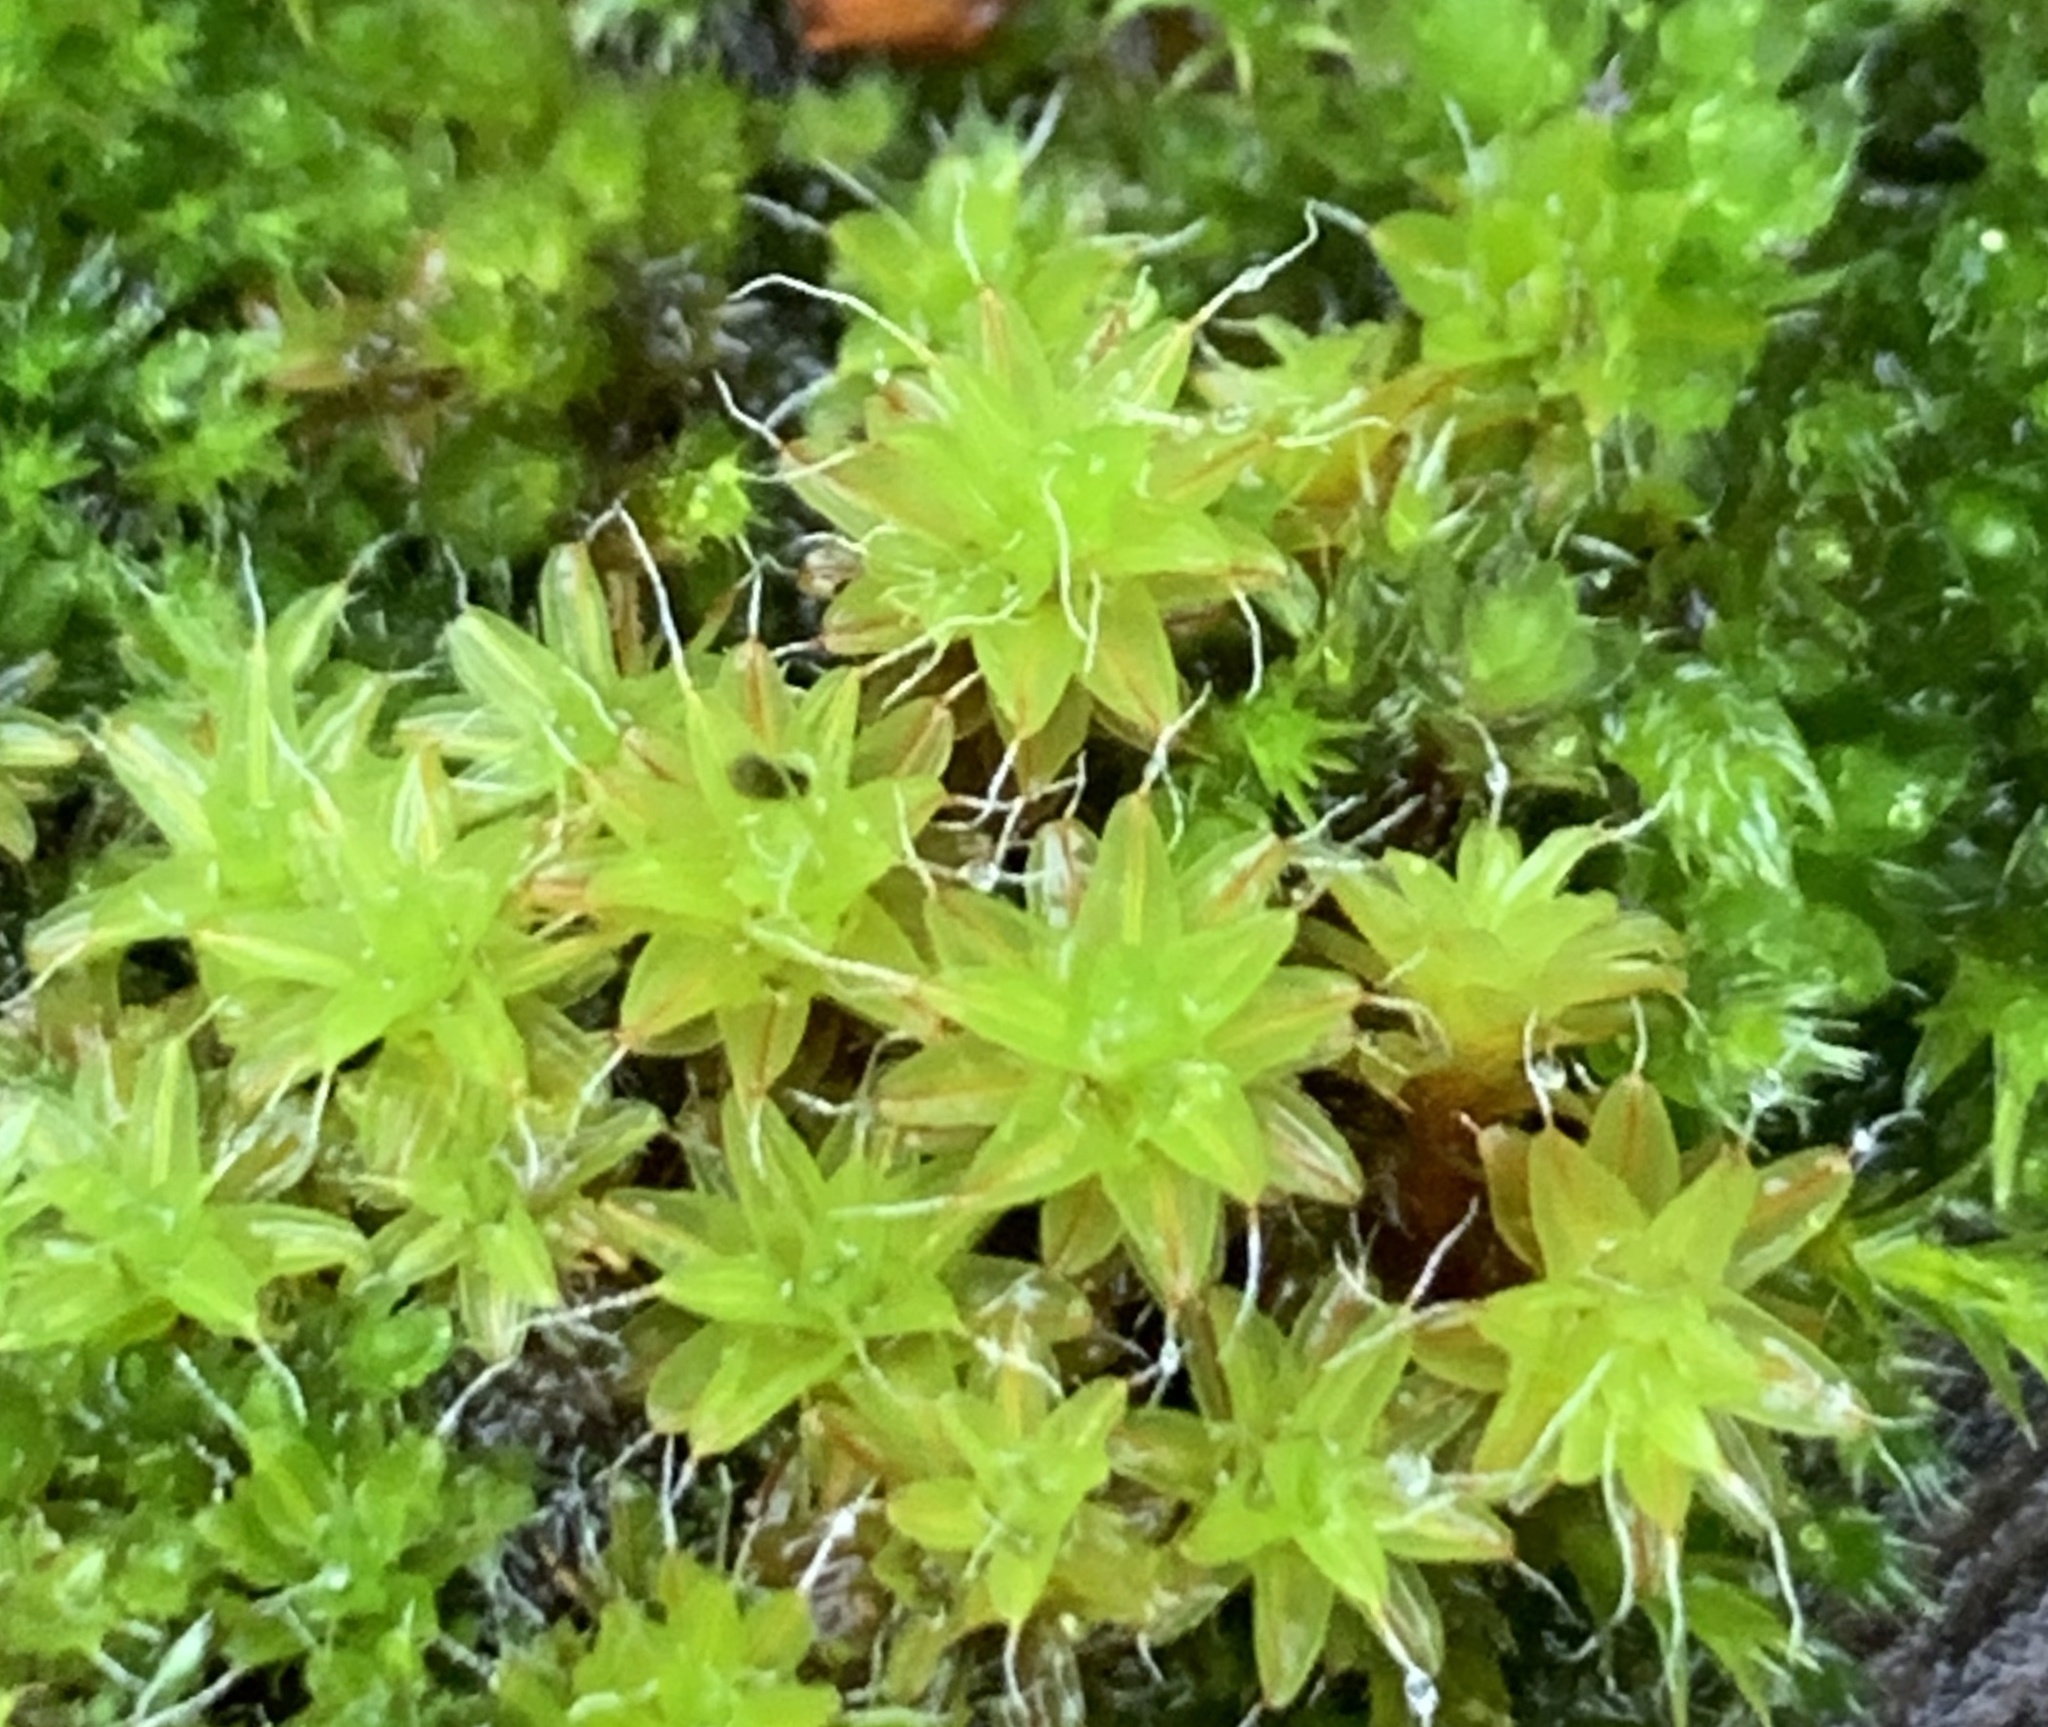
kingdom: Plantae
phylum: Bryophyta
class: Bryopsida
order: Pottiales
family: Pottiaceae
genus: Syntrichia
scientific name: Syntrichia montana
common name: Intermediate screw-moss
